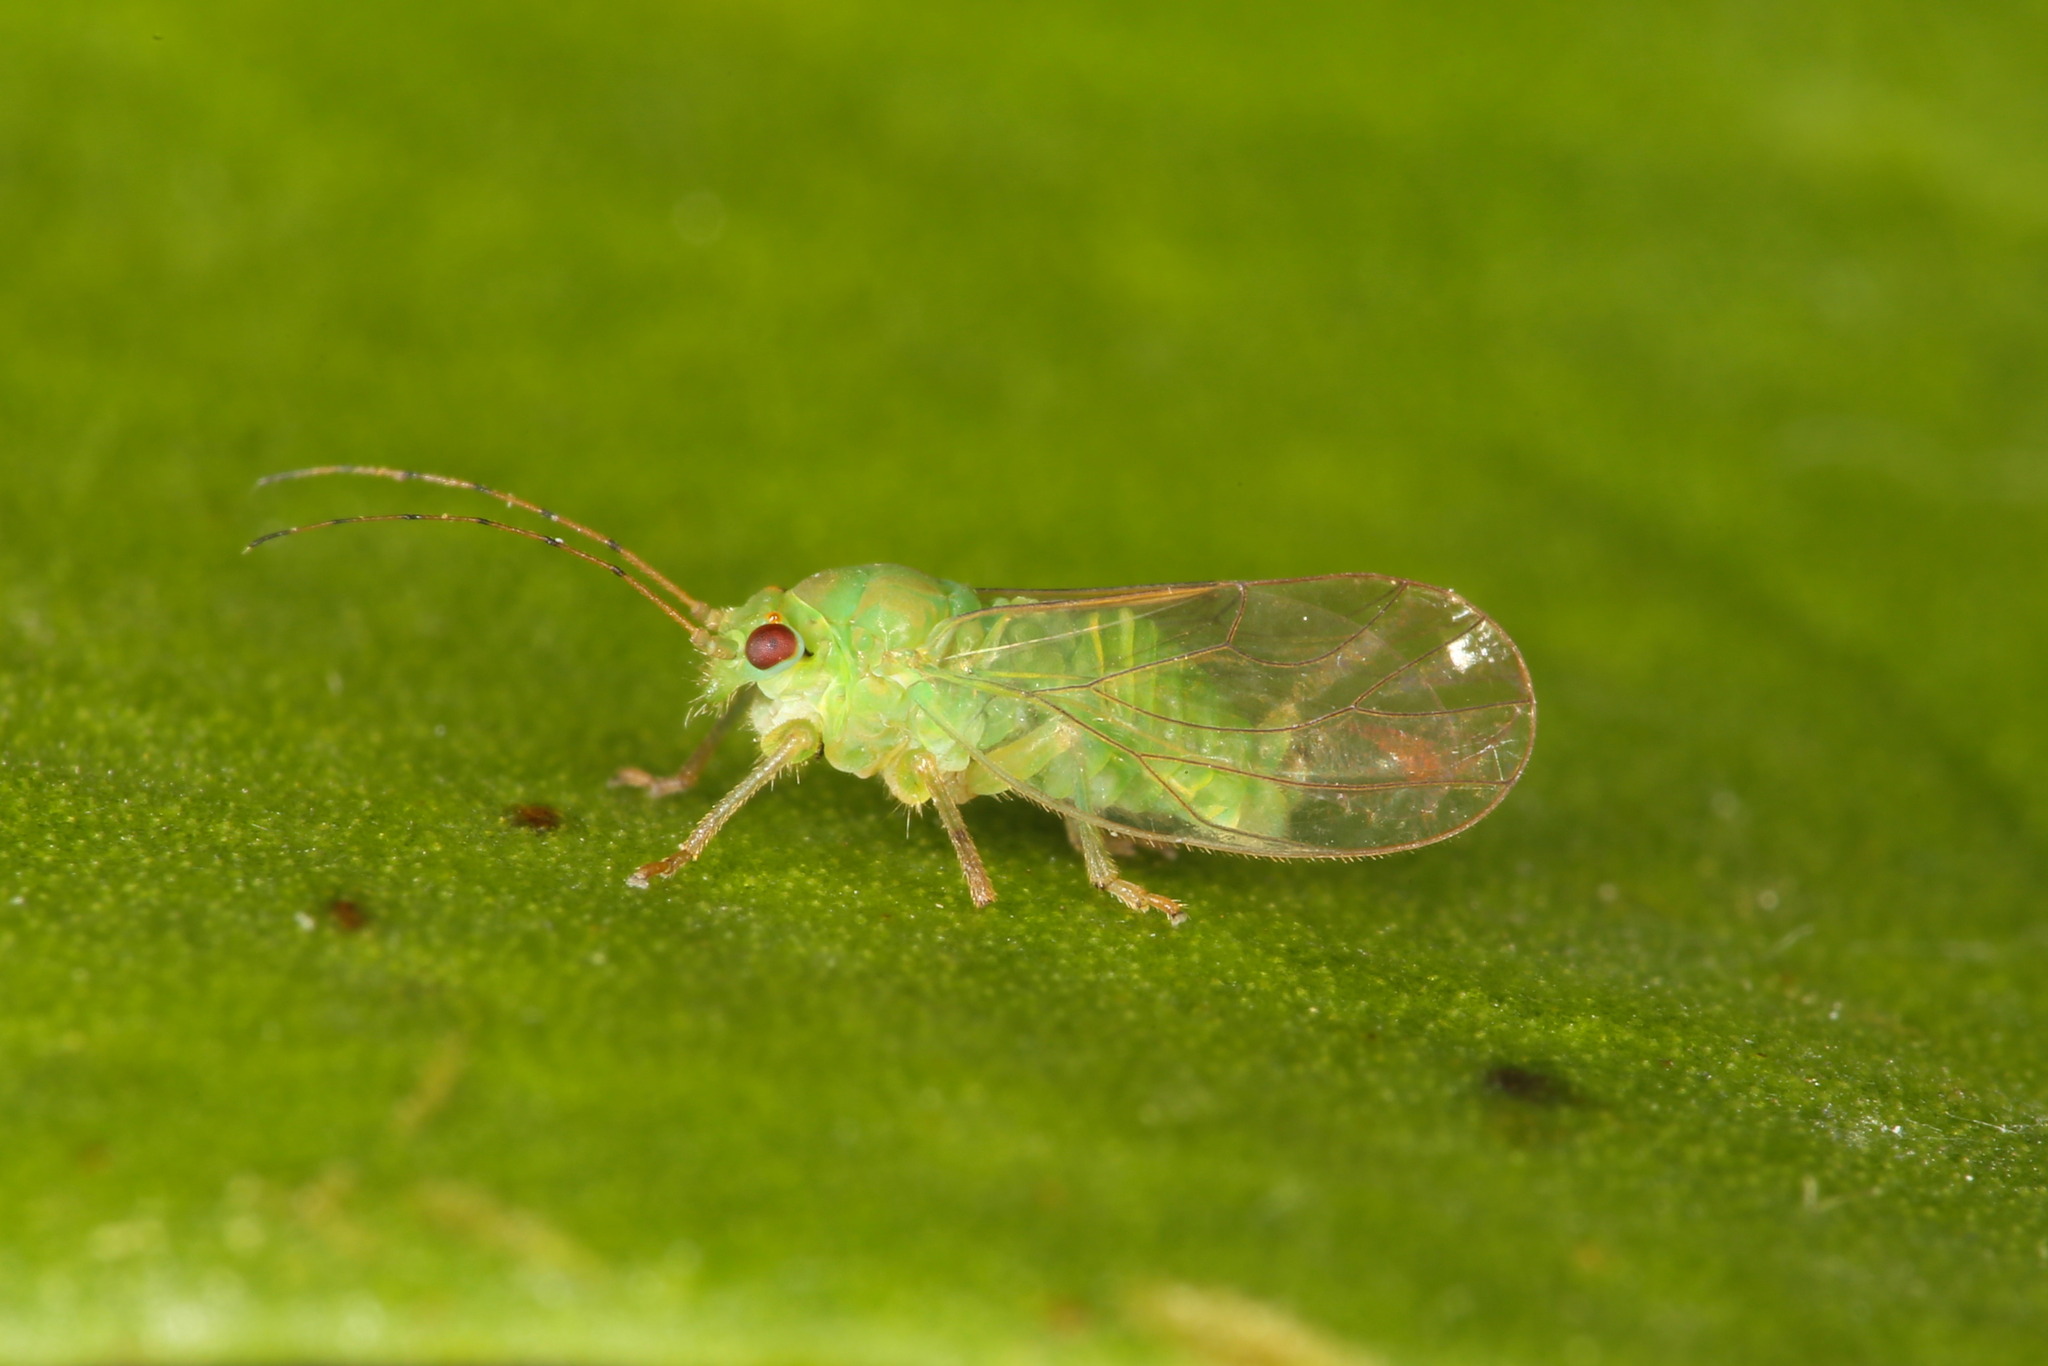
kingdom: Animalia
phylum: Arthropoda
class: Insecta
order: Hemiptera
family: Psyllidae
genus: Cacopsylla
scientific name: Cacopsylla visci
